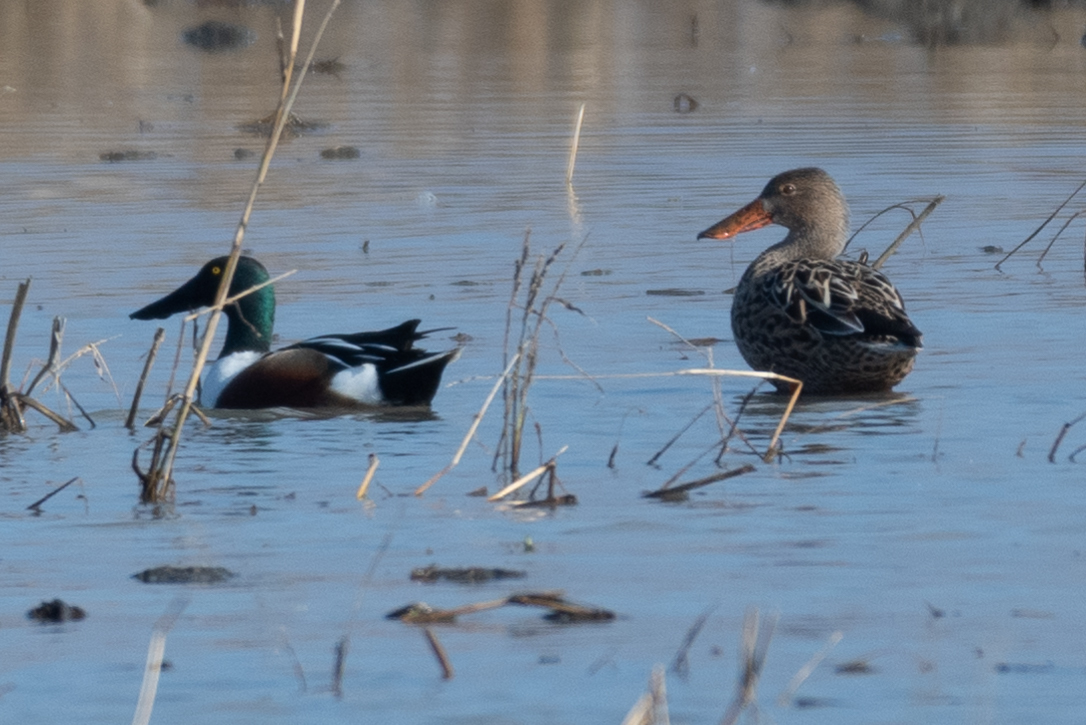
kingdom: Animalia
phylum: Chordata
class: Aves
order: Anseriformes
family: Anatidae
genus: Spatula
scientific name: Spatula clypeata
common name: Northern shoveler
